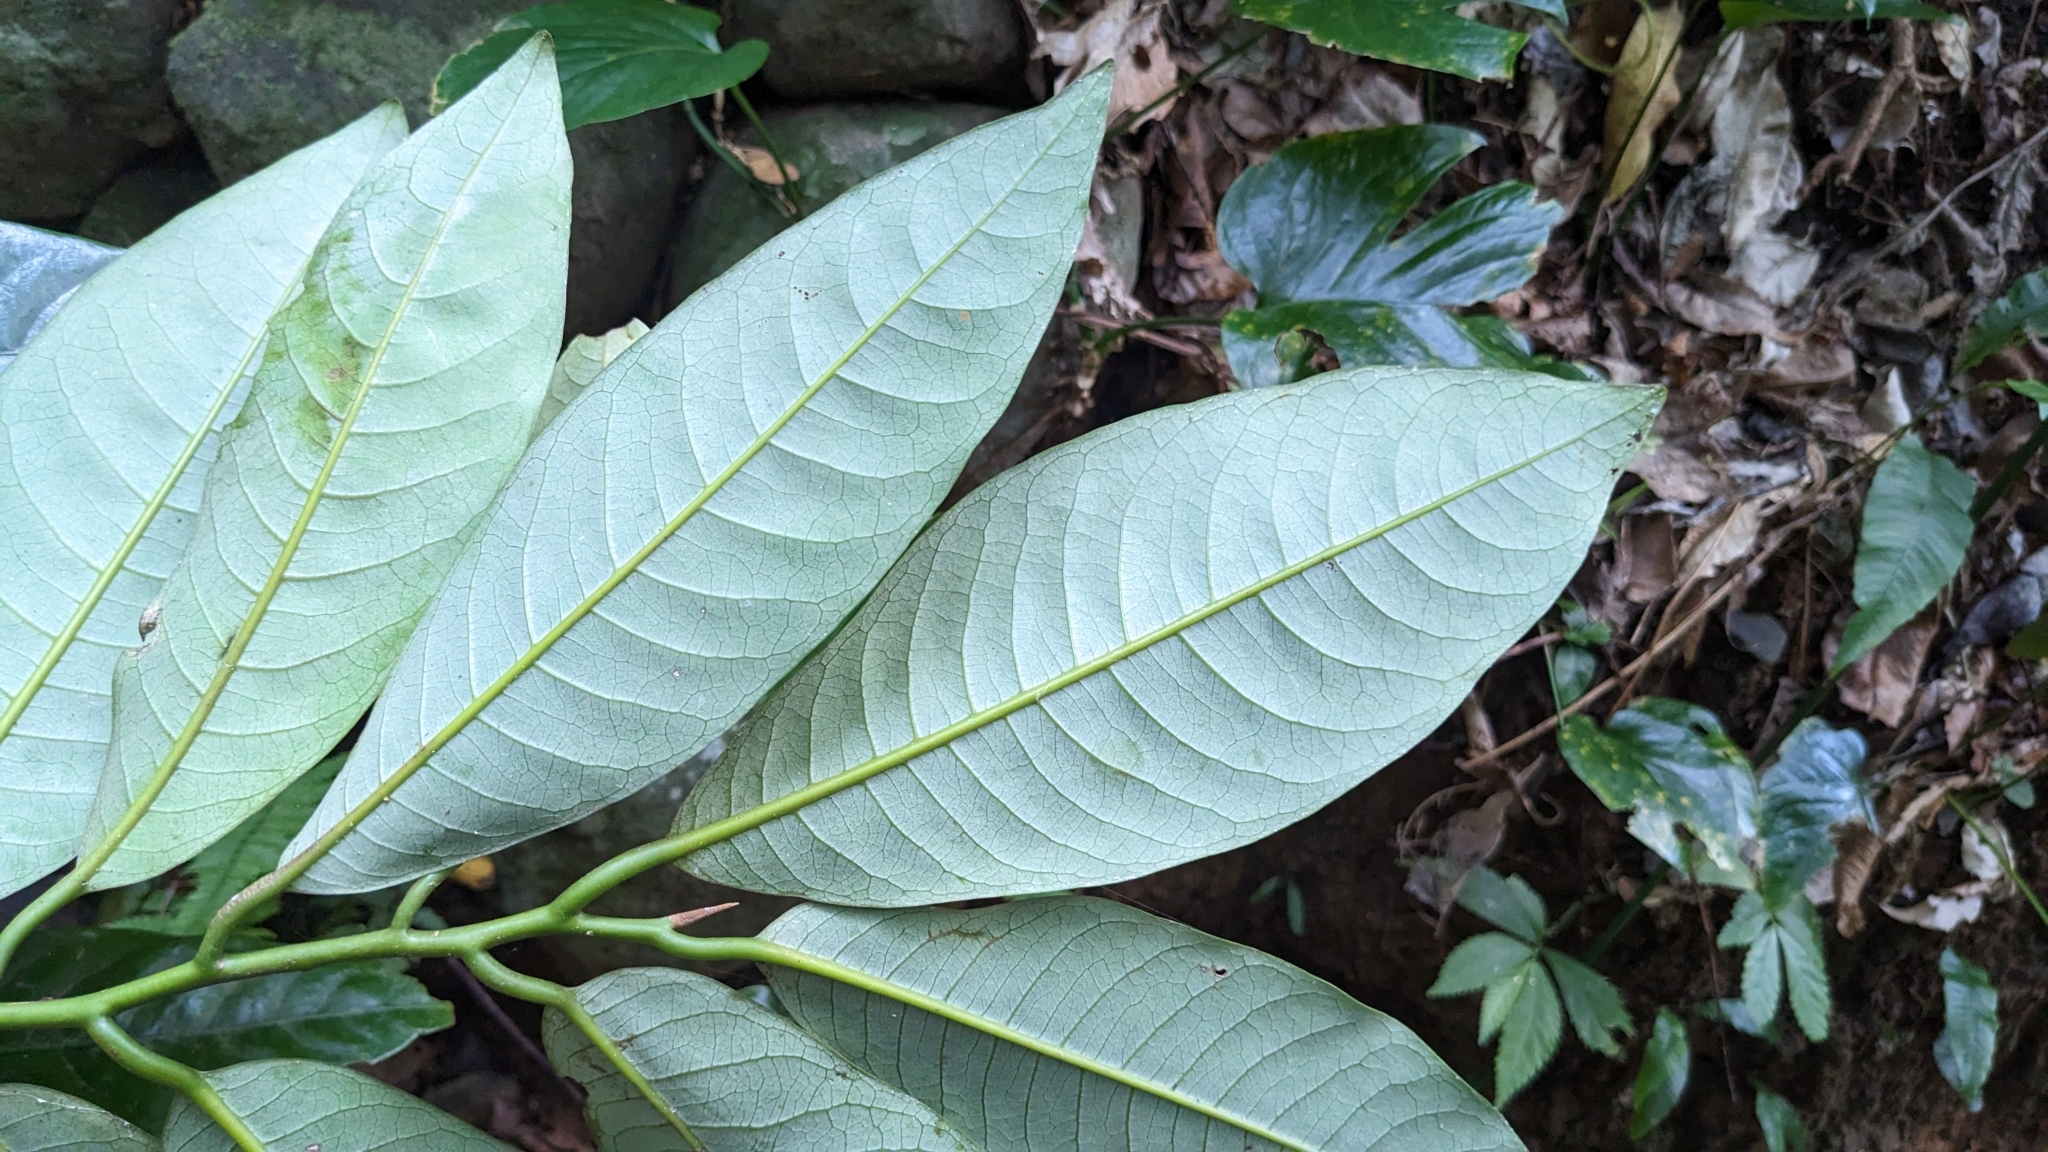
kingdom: Plantae
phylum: Tracheophyta
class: Magnoliopsida
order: Magnoliales
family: Myristicaceae
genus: Myristica
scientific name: Myristica ceylanica
